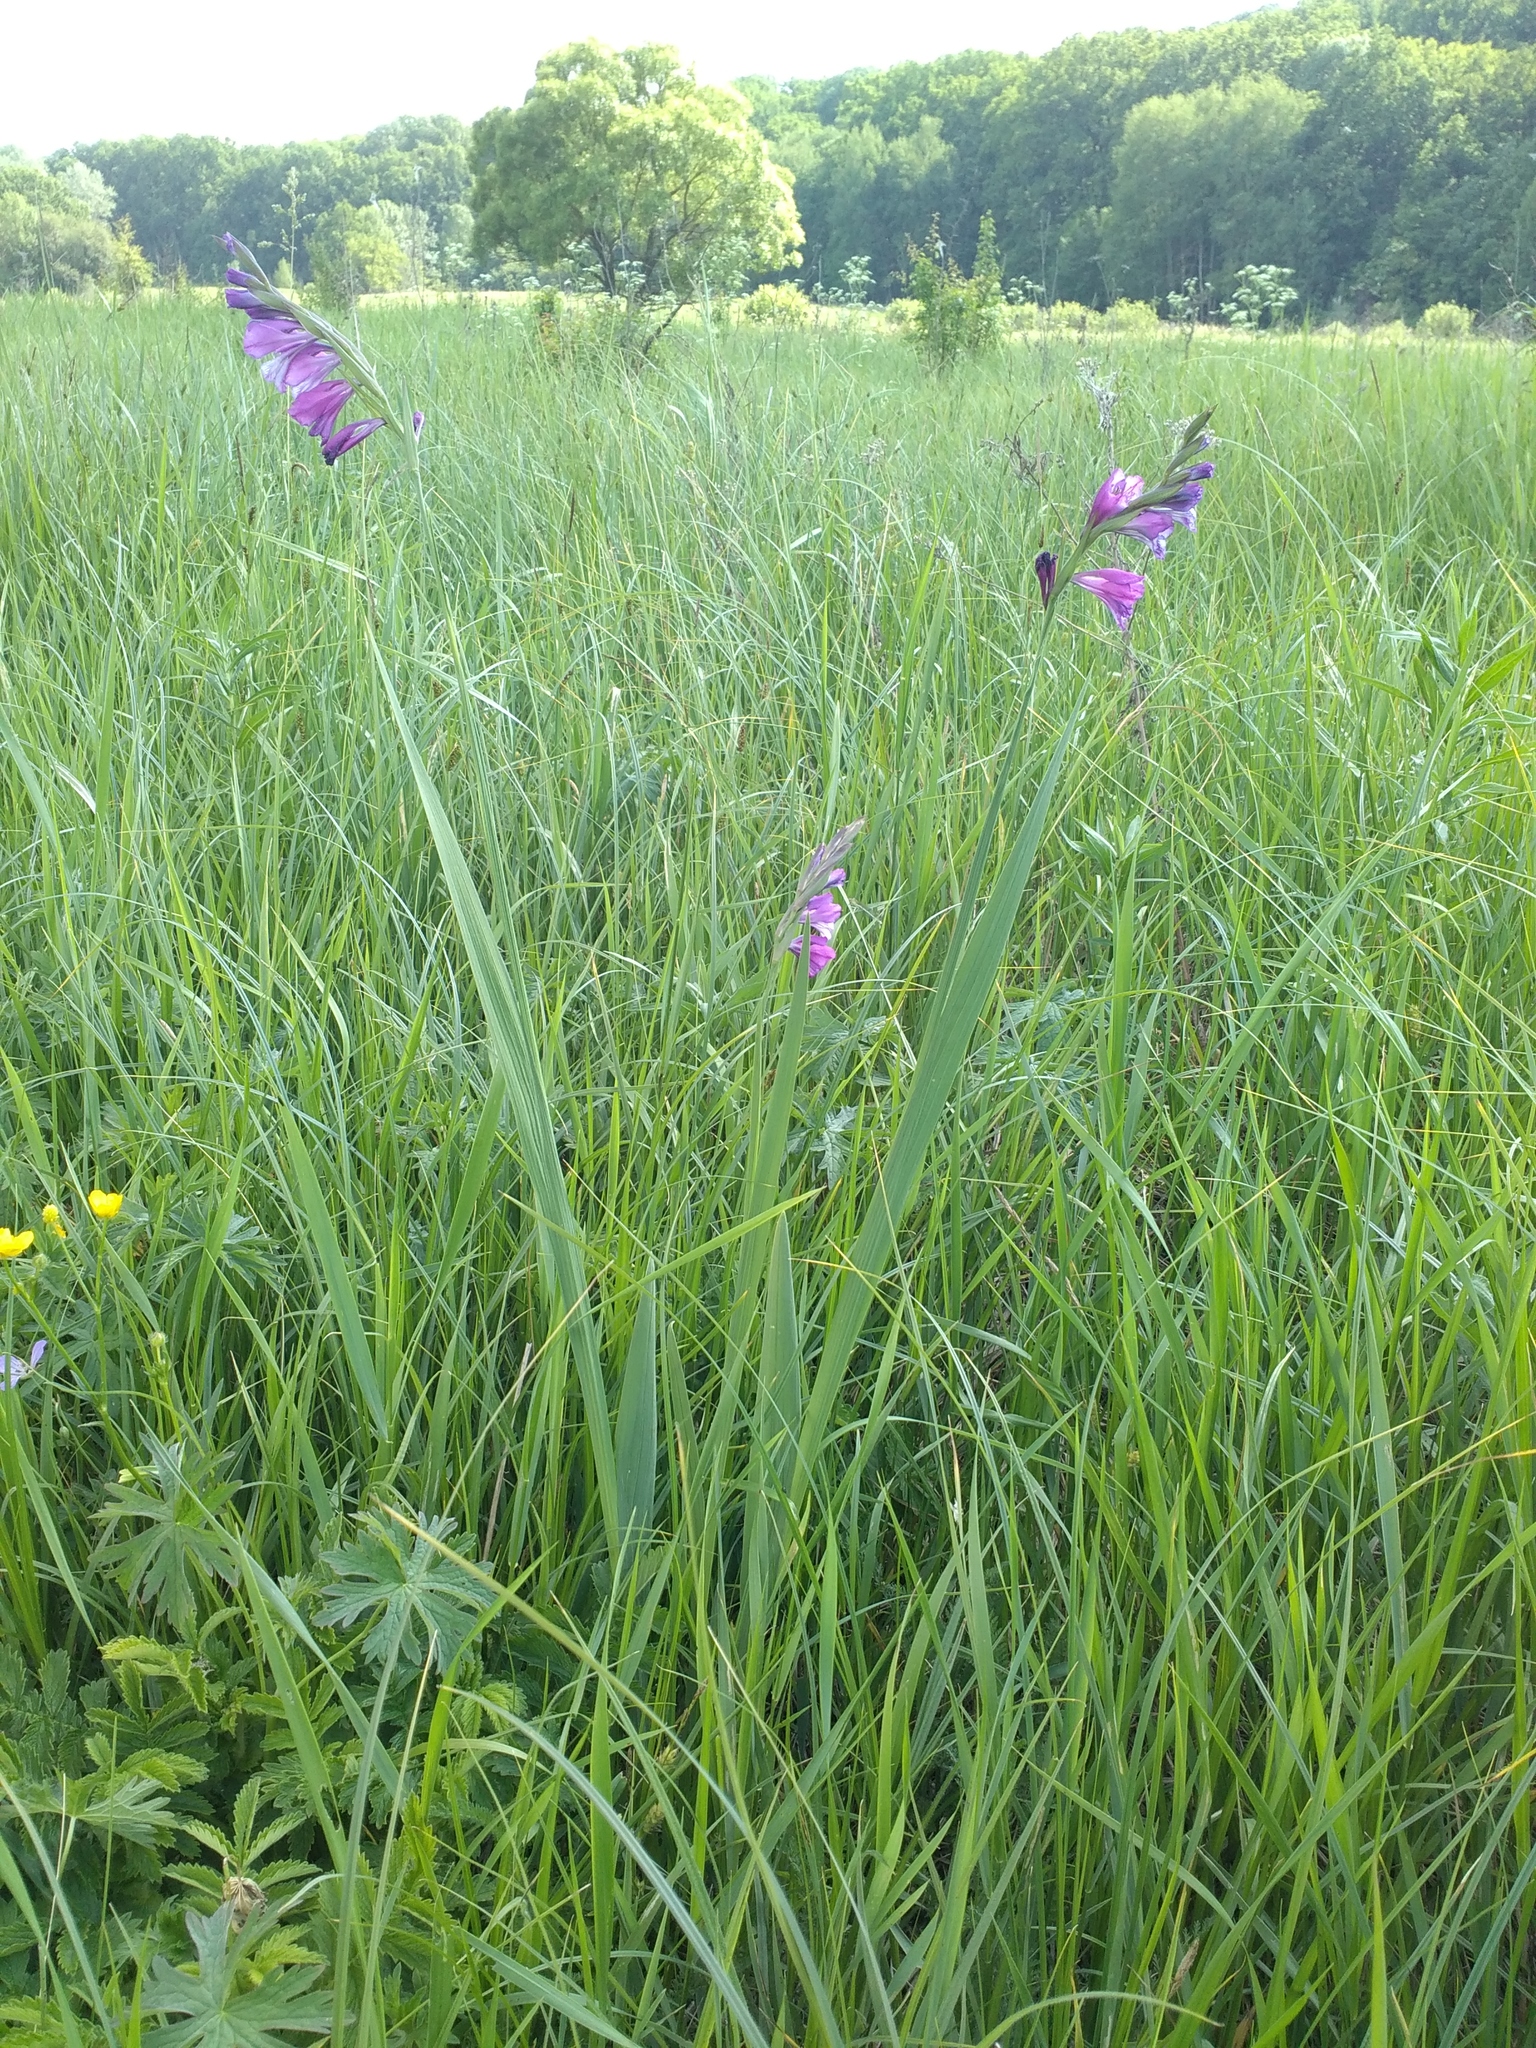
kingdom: Plantae
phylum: Tracheophyta
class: Liliopsida
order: Asparagales
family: Iridaceae
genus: Gladiolus
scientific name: Gladiolus tenuis
